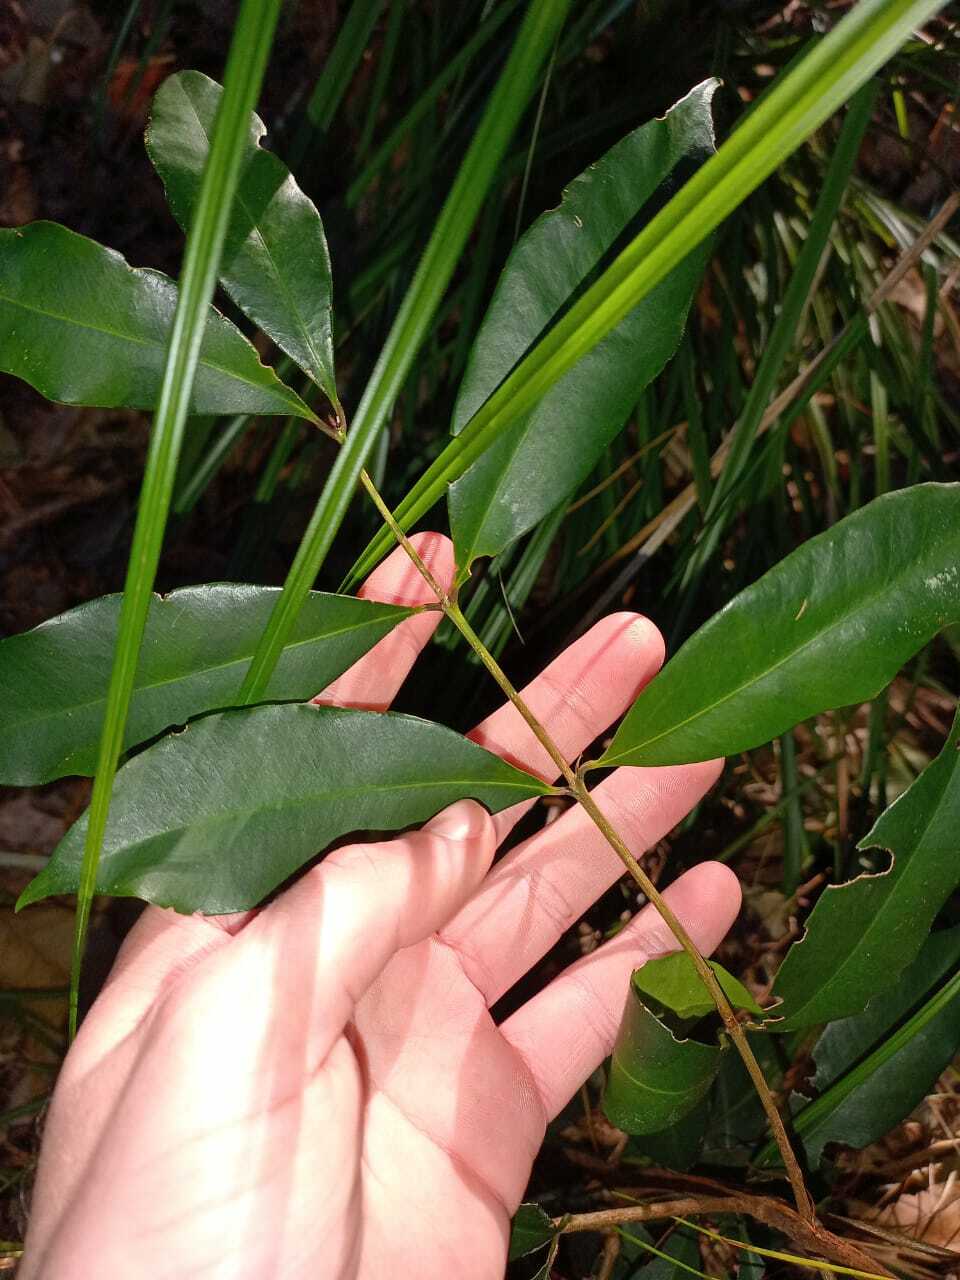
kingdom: Plantae
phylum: Tracheophyta
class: Magnoliopsida
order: Myrtales
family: Myrtaceae
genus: Syzygium
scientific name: Syzygium australe
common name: Australian brush-cherry
